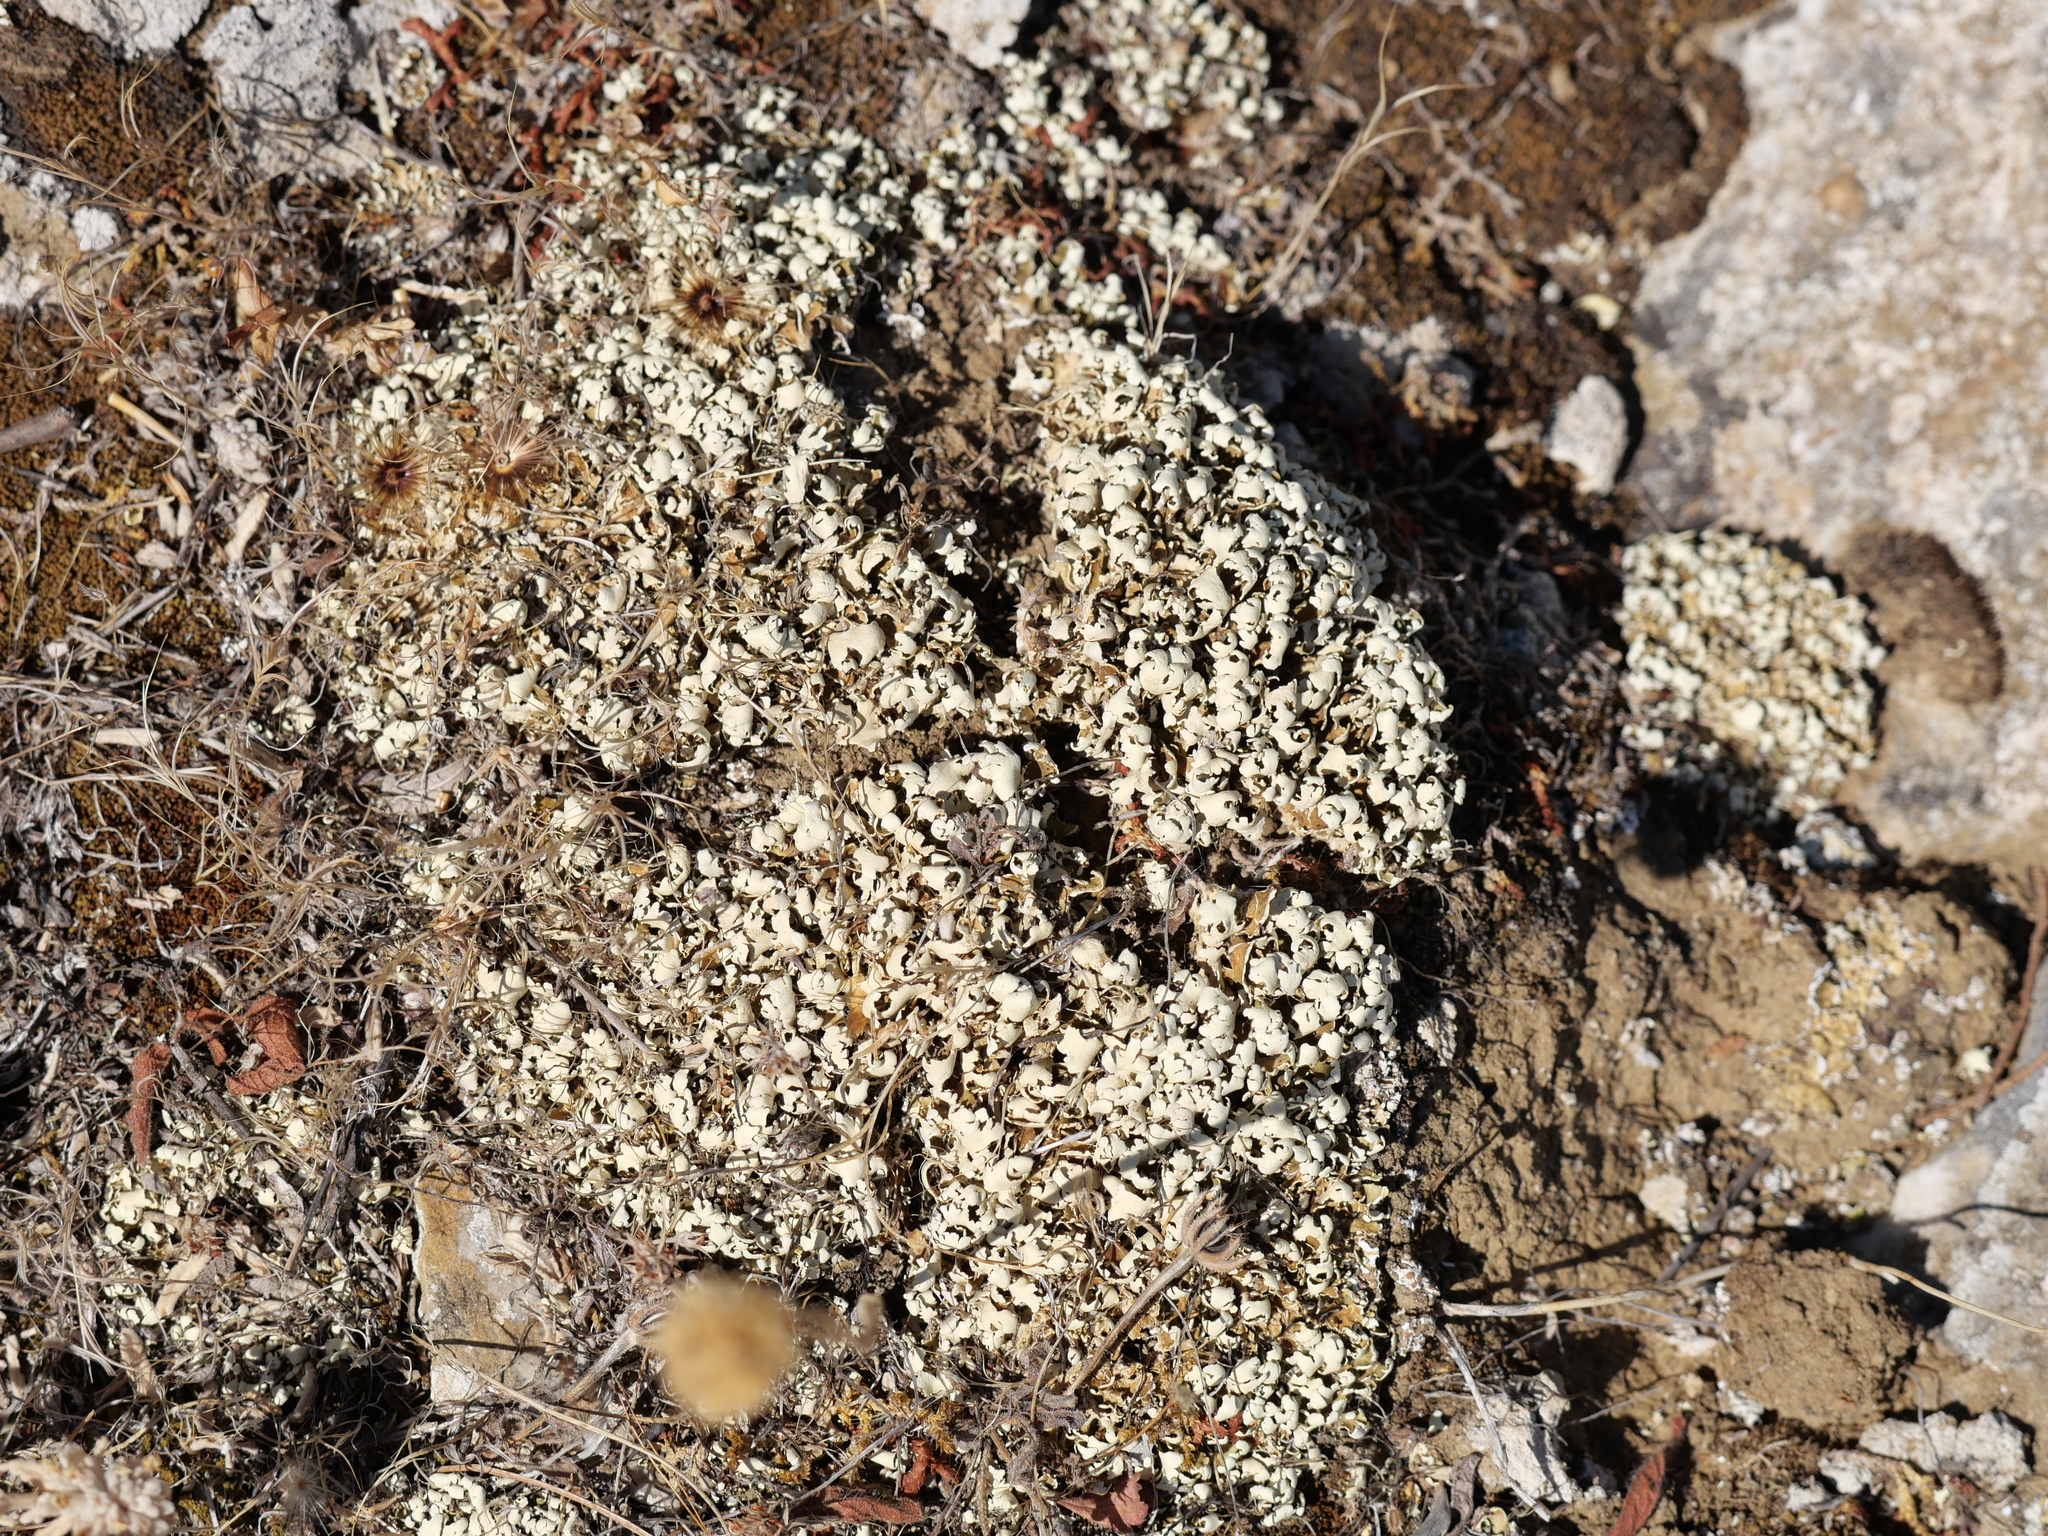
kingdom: Fungi
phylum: Ascomycota
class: Lecanoromycetes
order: Lecanorales
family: Cladoniaceae
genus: Cladonia
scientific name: Cladonia foliacea
